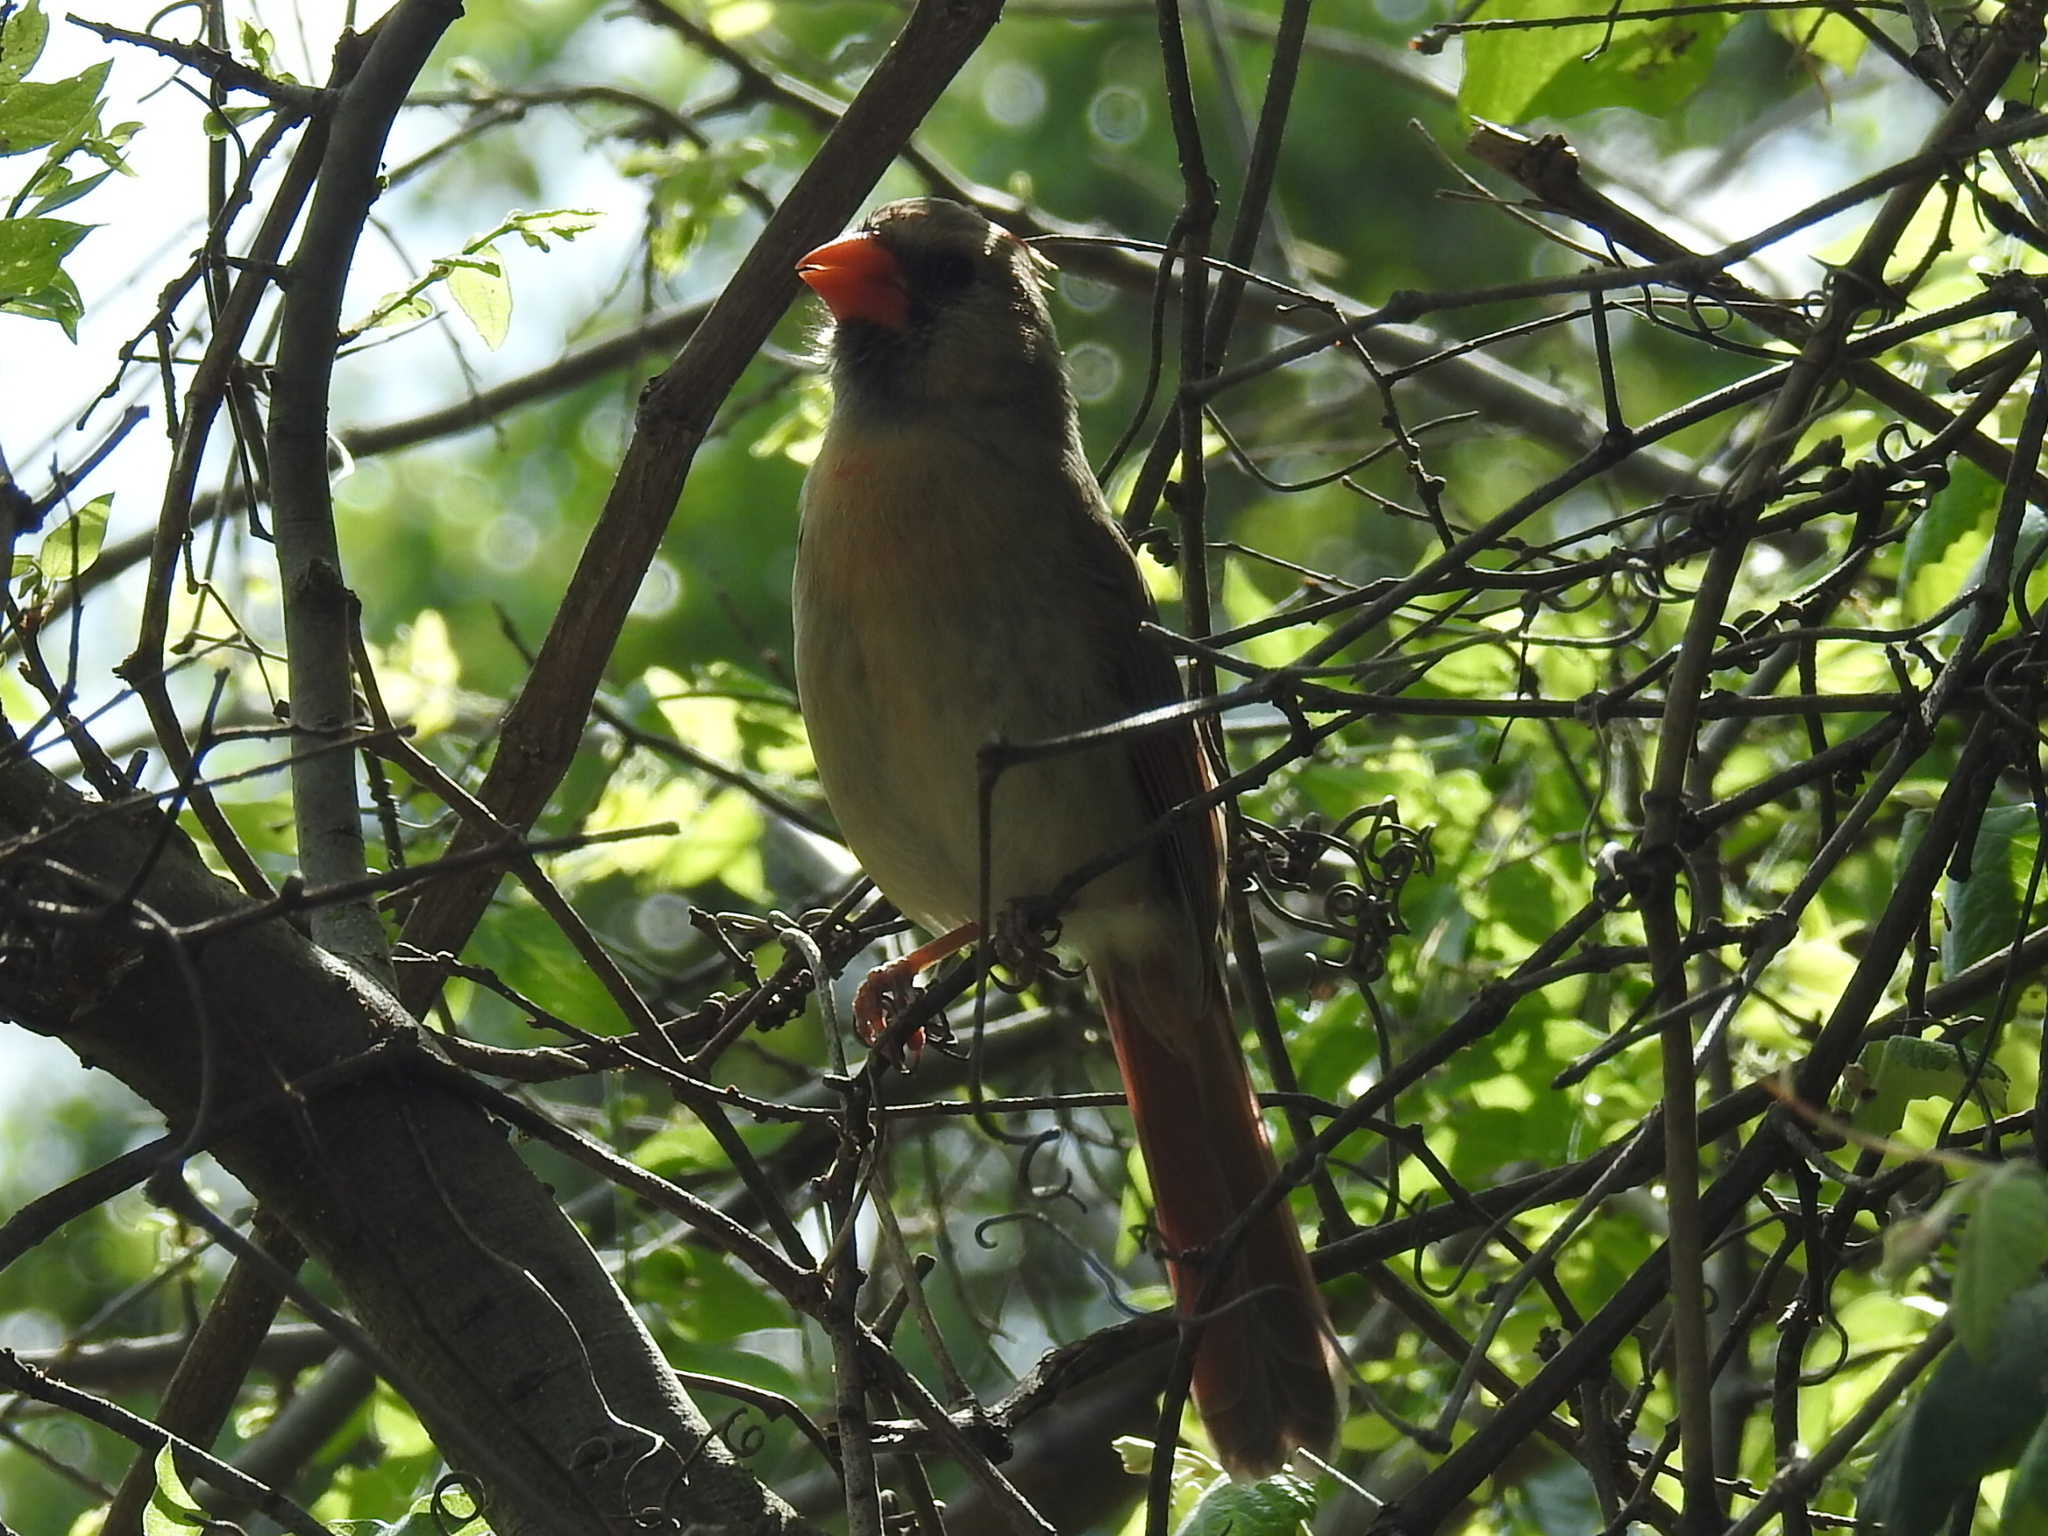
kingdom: Animalia
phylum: Chordata
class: Aves
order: Passeriformes
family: Cardinalidae
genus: Cardinalis
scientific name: Cardinalis cardinalis
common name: Northern cardinal
